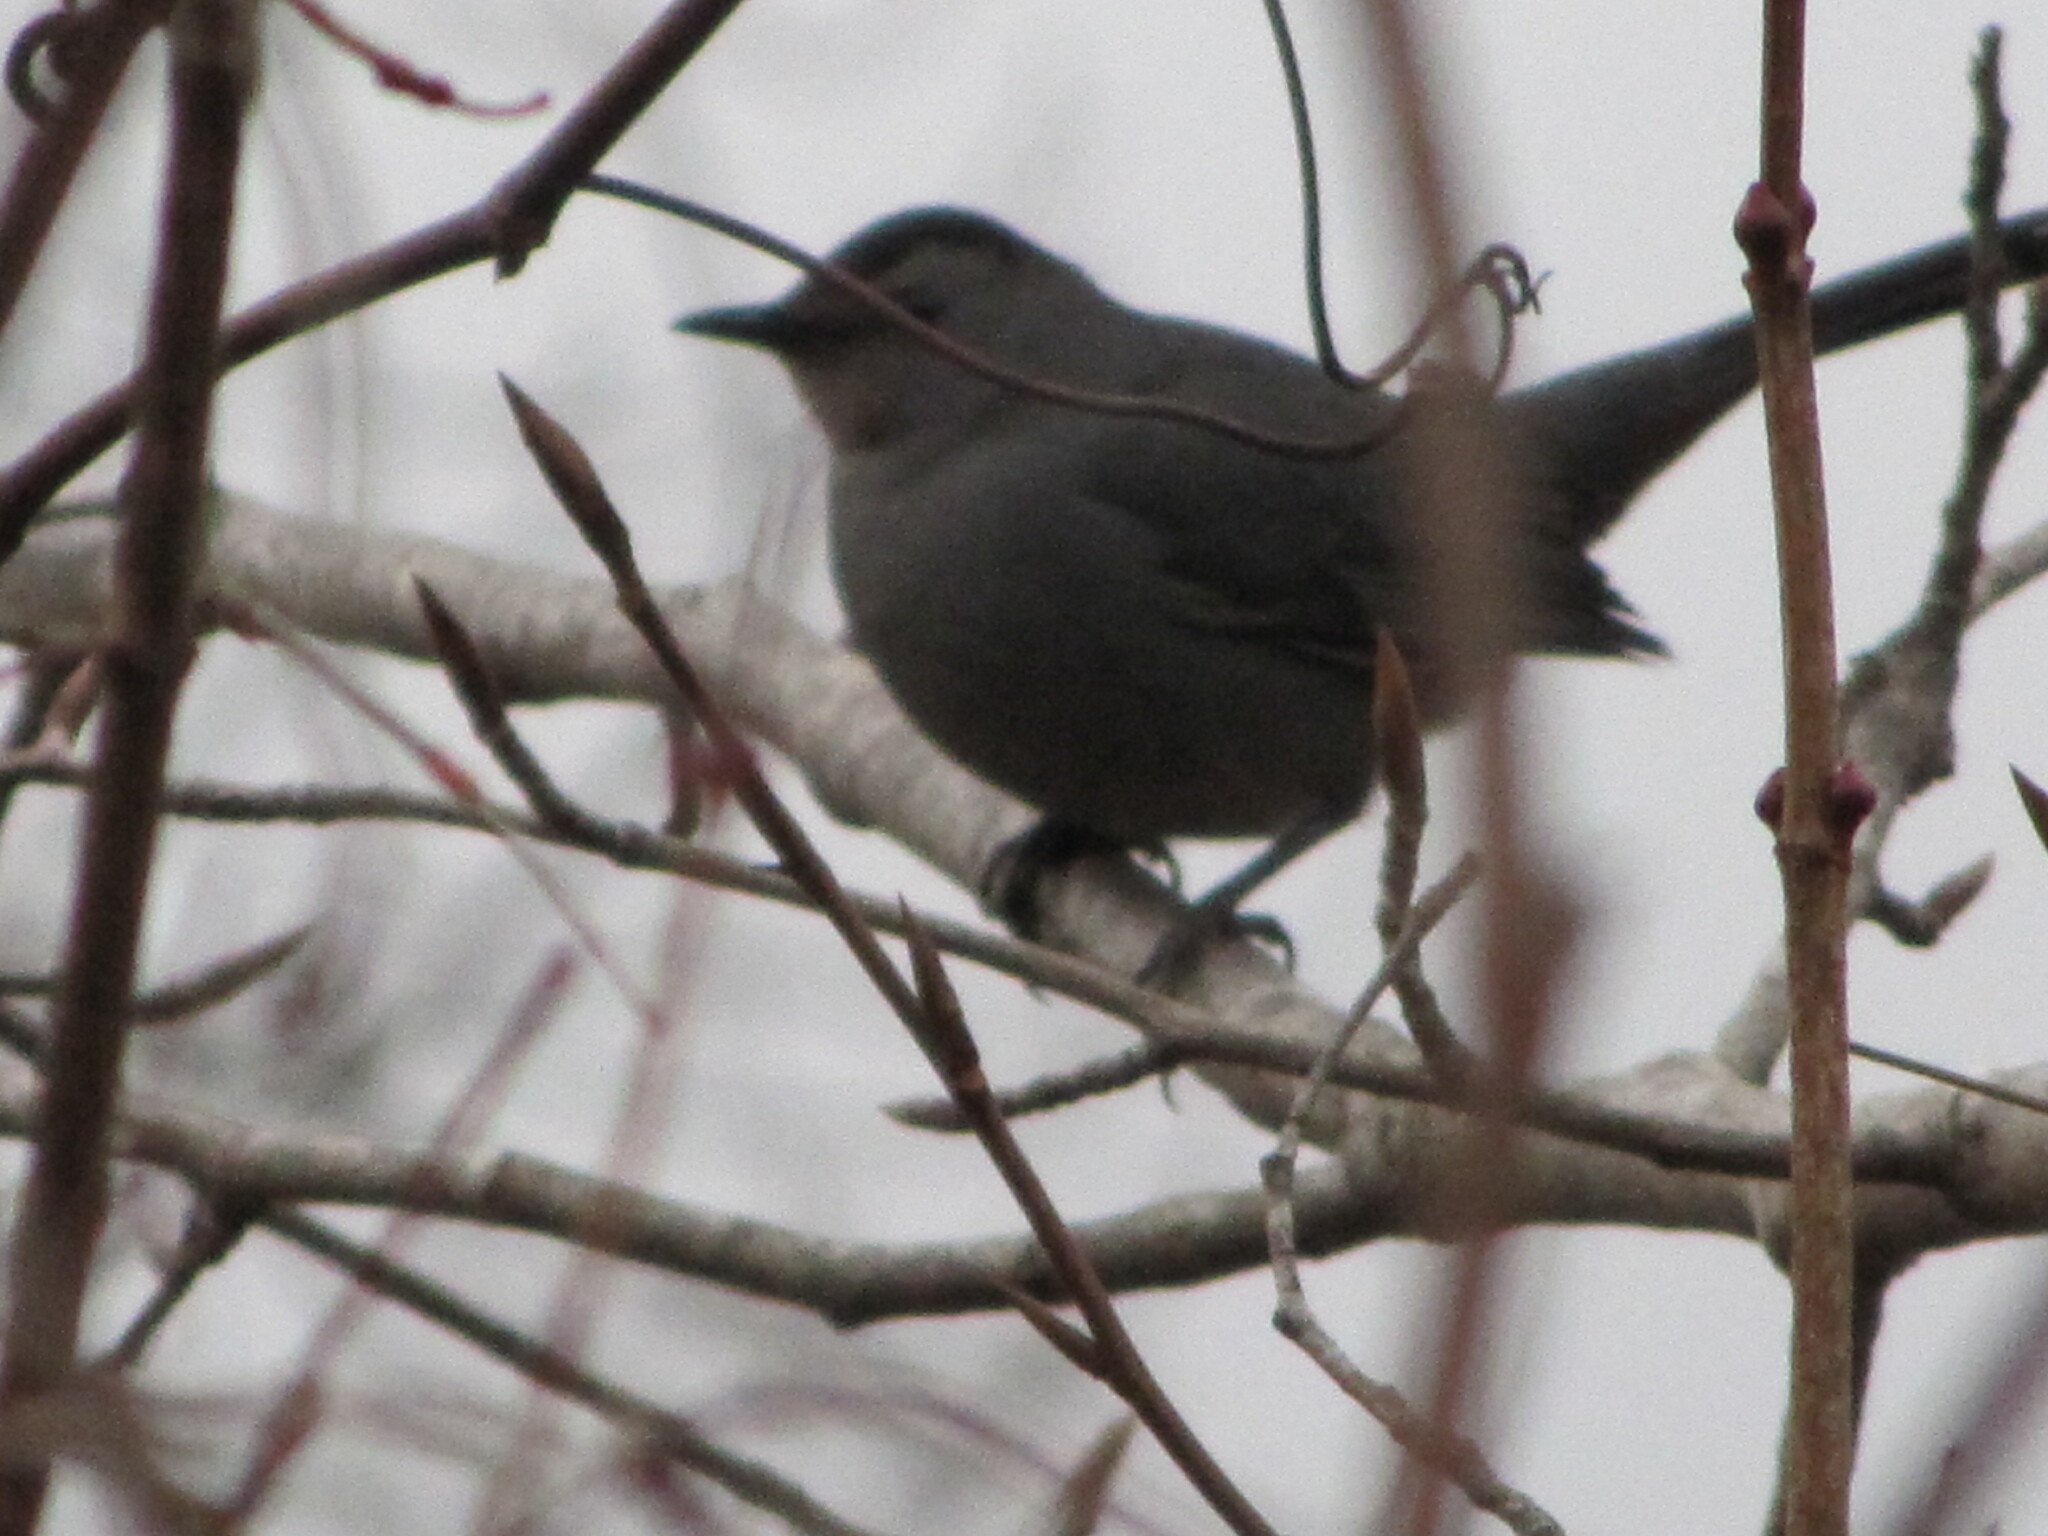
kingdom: Animalia
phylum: Chordata
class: Aves
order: Passeriformes
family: Mimidae
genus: Dumetella
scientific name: Dumetella carolinensis
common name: Gray catbird
